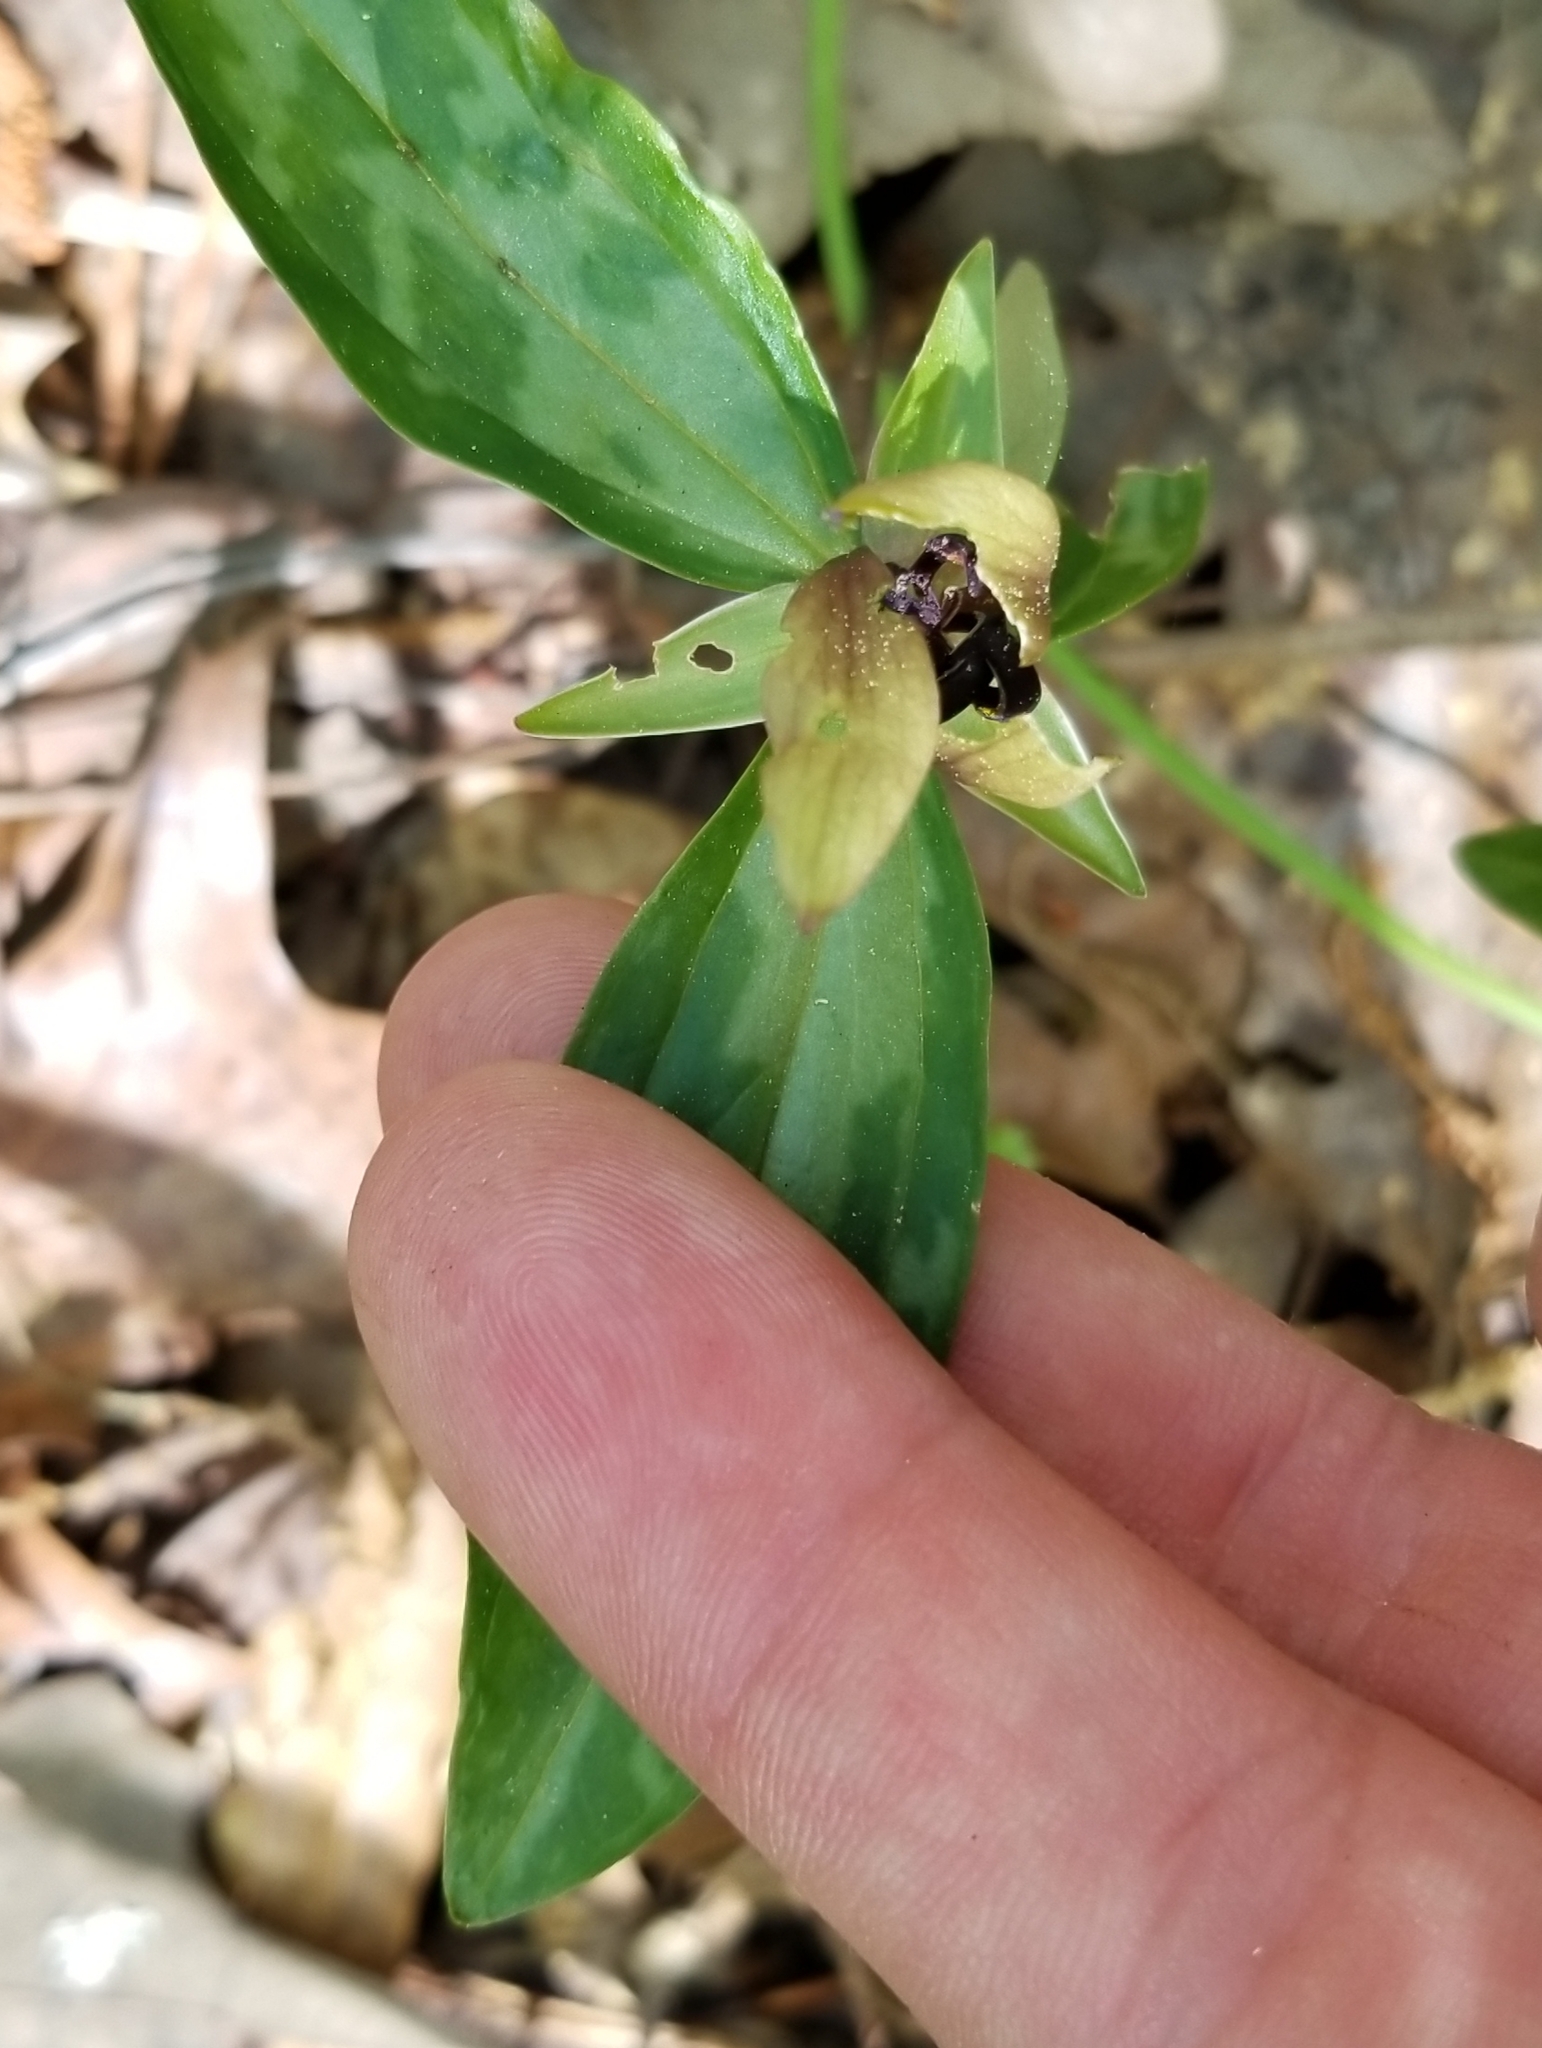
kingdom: Plantae
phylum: Tracheophyta
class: Liliopsida
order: Liliales
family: Melanthiaceae
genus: Trillium
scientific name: Trillium lancifolium
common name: Lance-leaved trillium
